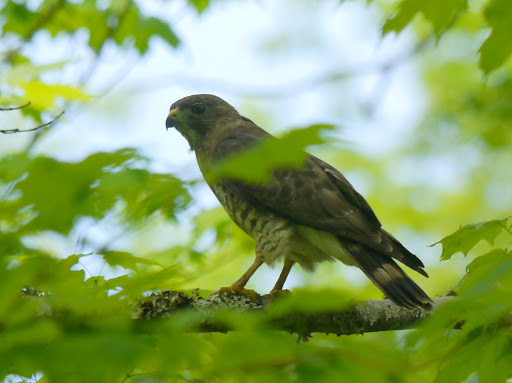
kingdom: Animalia
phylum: Chordata
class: Aves
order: Accipitriformes
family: Accipitridae
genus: Buteo
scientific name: Buteo platypterus
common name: Broad-winged hawk
